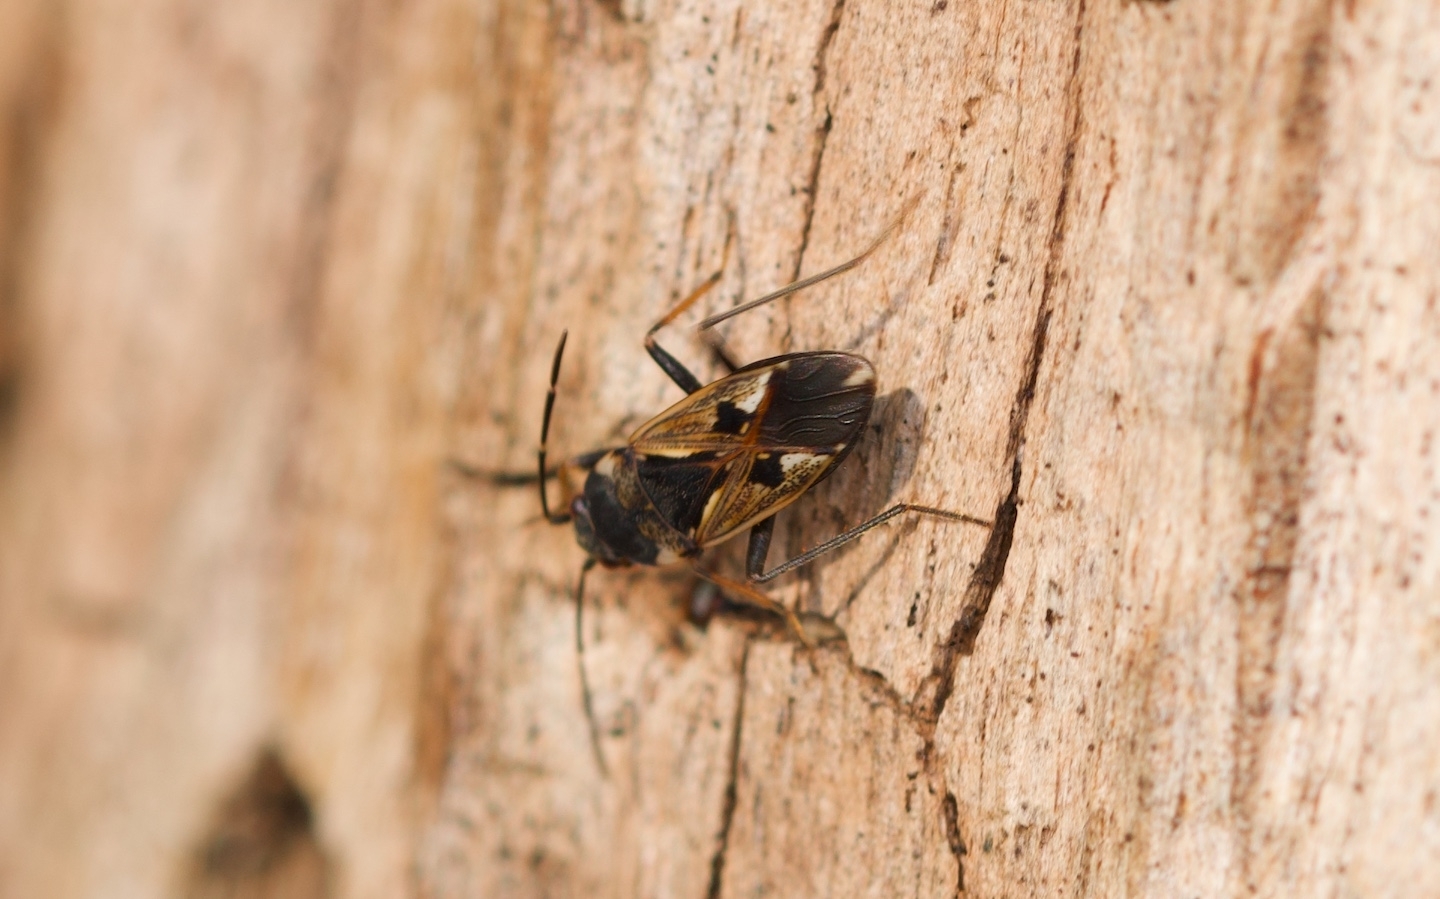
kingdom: Animalia
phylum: Arthropoda
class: Insecta
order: Hemiptera
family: Rhyparochromidae
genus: Rhyparochromus
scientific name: Rhyparochromus vulgaris
